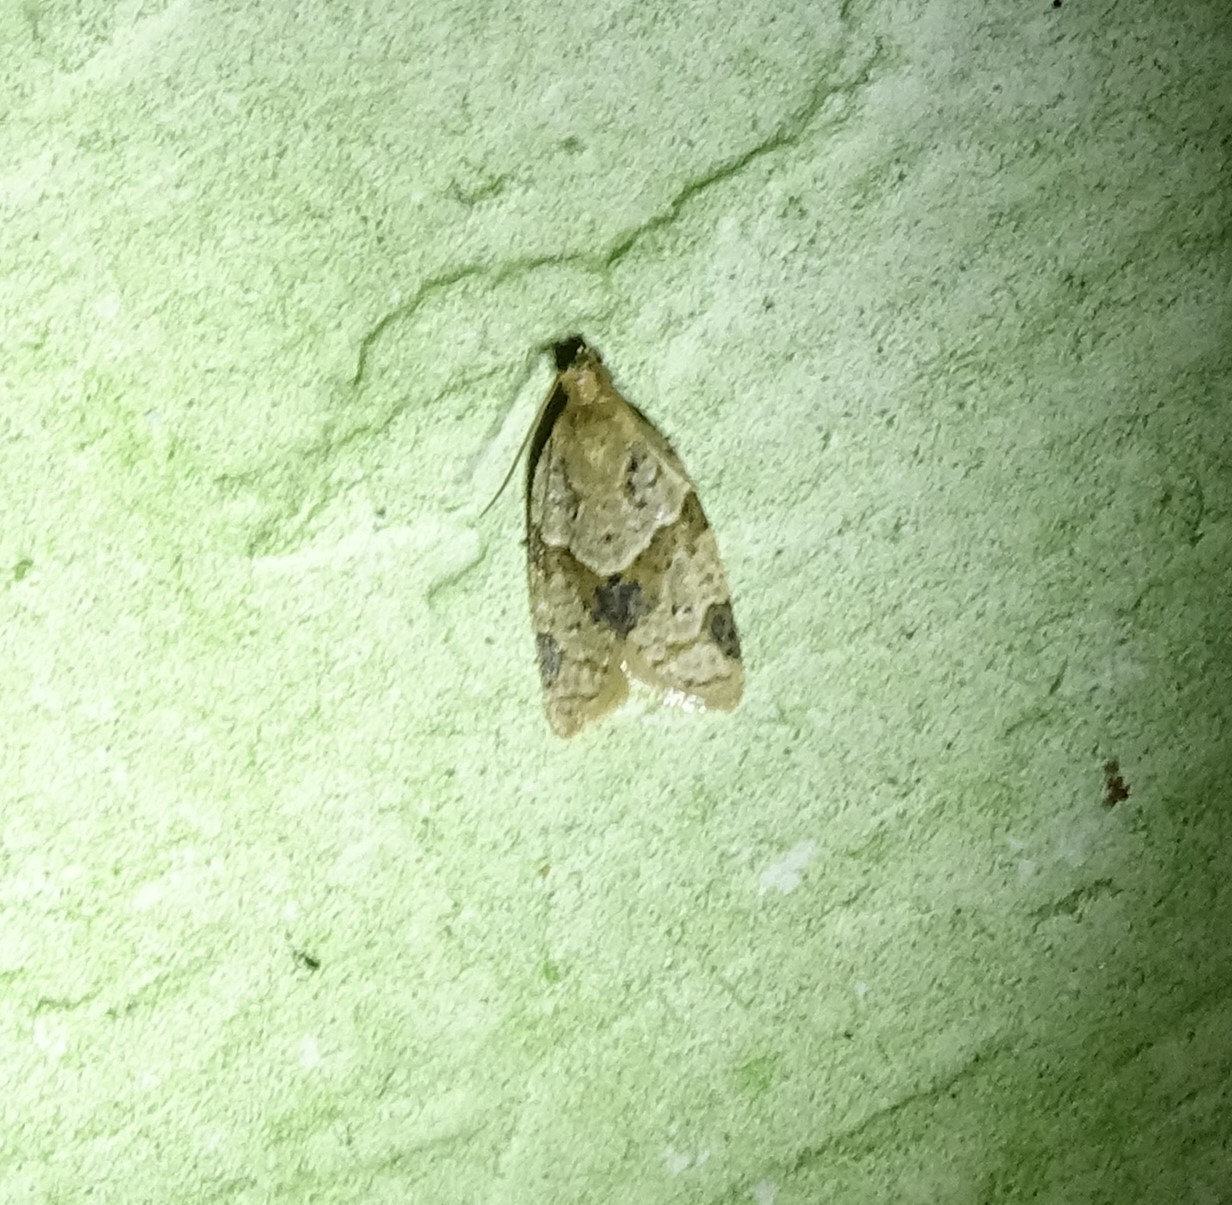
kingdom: Animalia
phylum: Arthropoda
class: Insecta
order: Lepidoptera
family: Tortricidae
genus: Clepsis
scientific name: Clepsis peritana
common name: Garden tortrix
